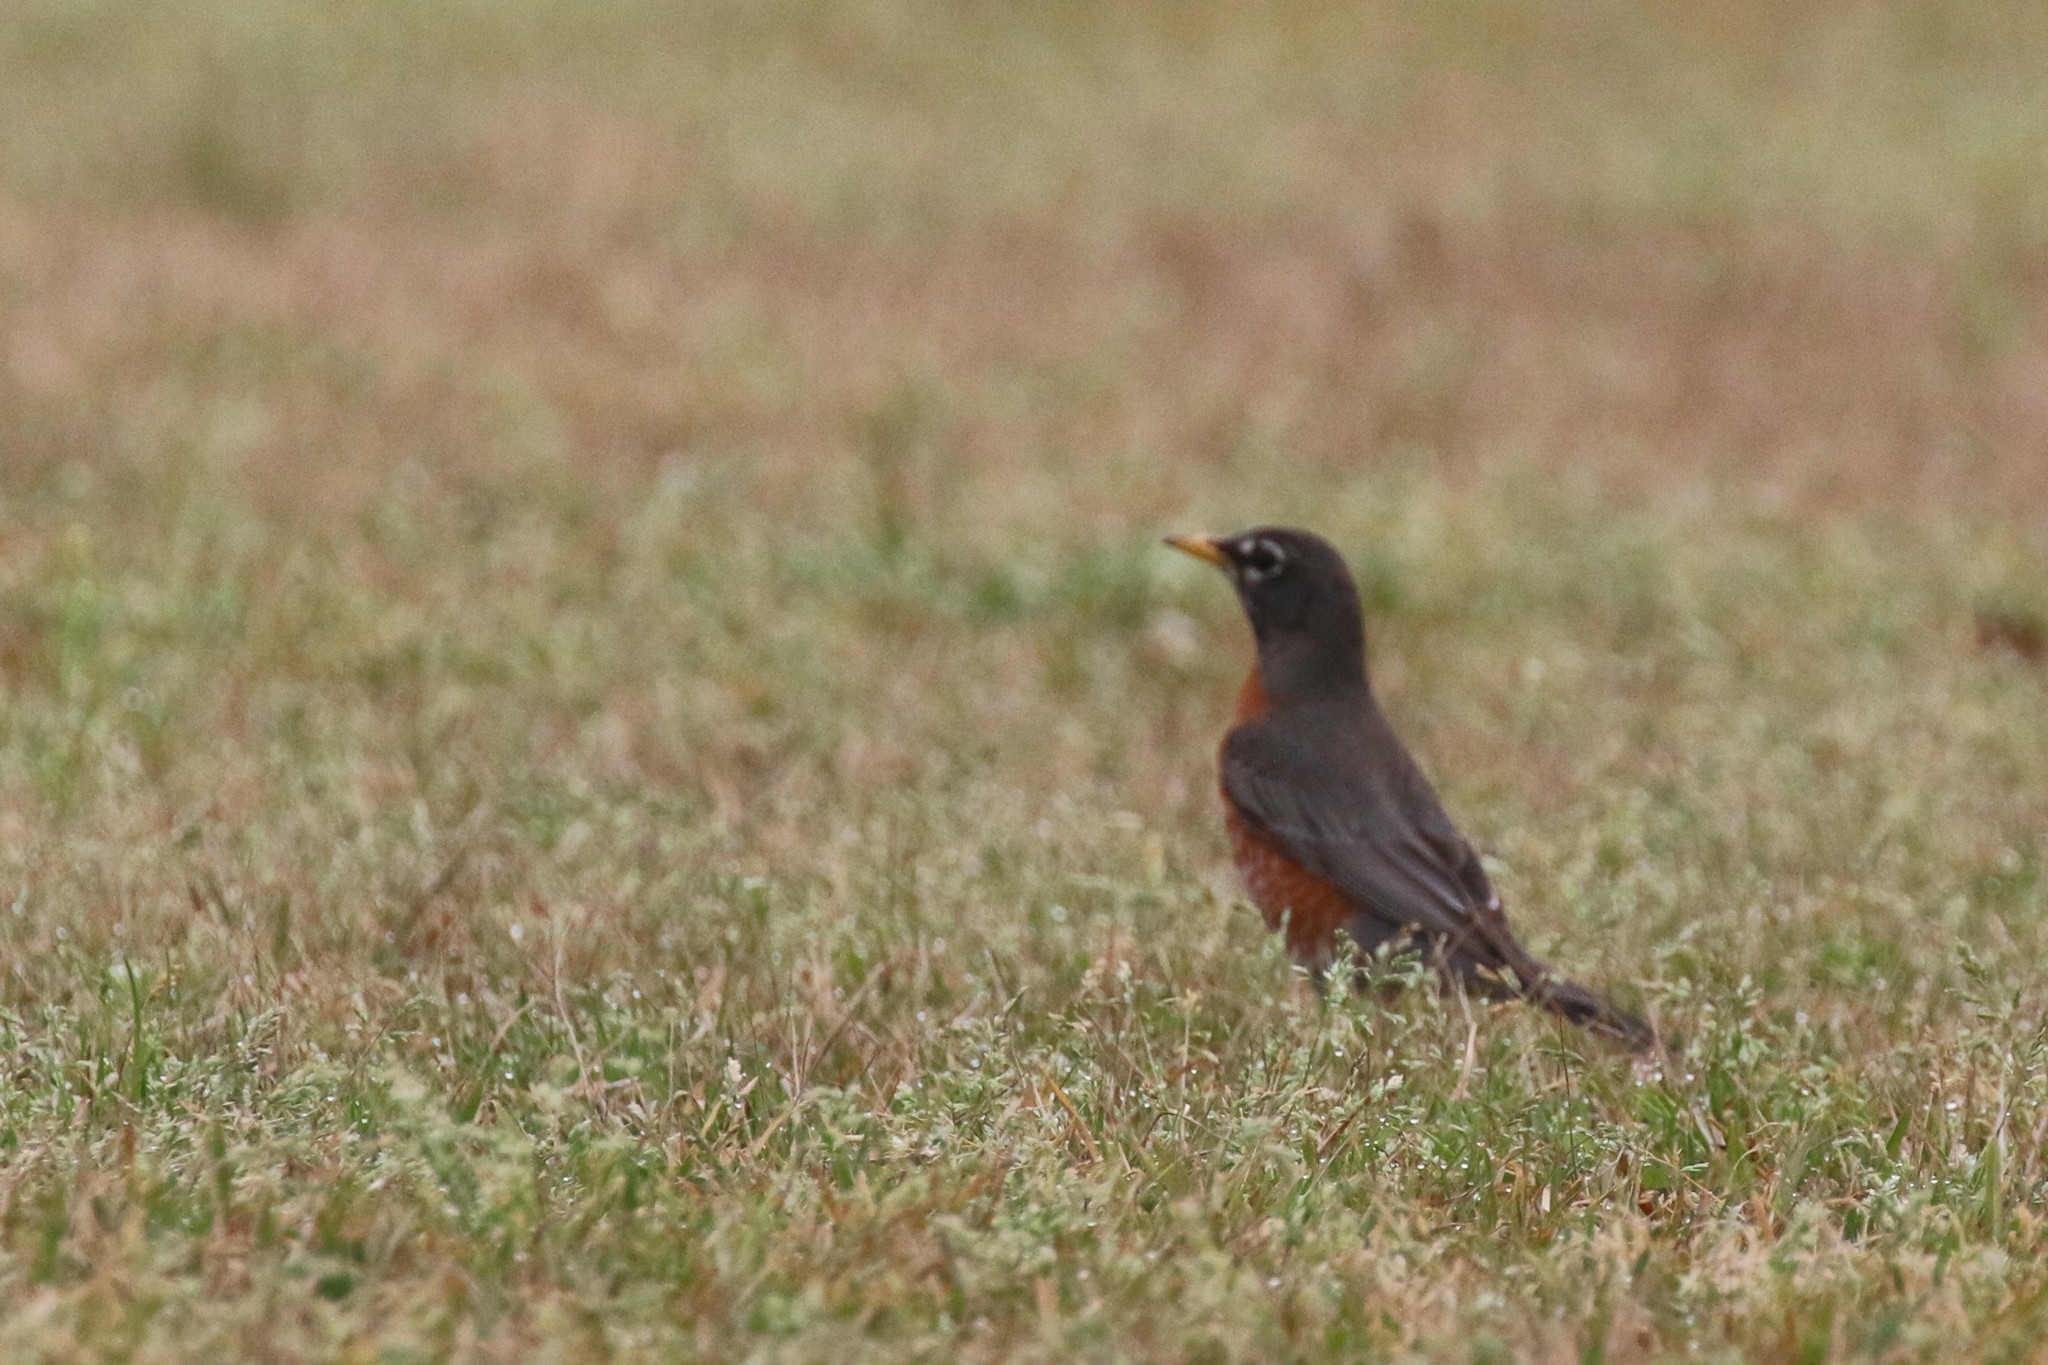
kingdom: Animalia
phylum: Chordata
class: Aves
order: Passeriformes
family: Turdidae
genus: Turdus
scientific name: Turdus migratorius
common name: American robin
